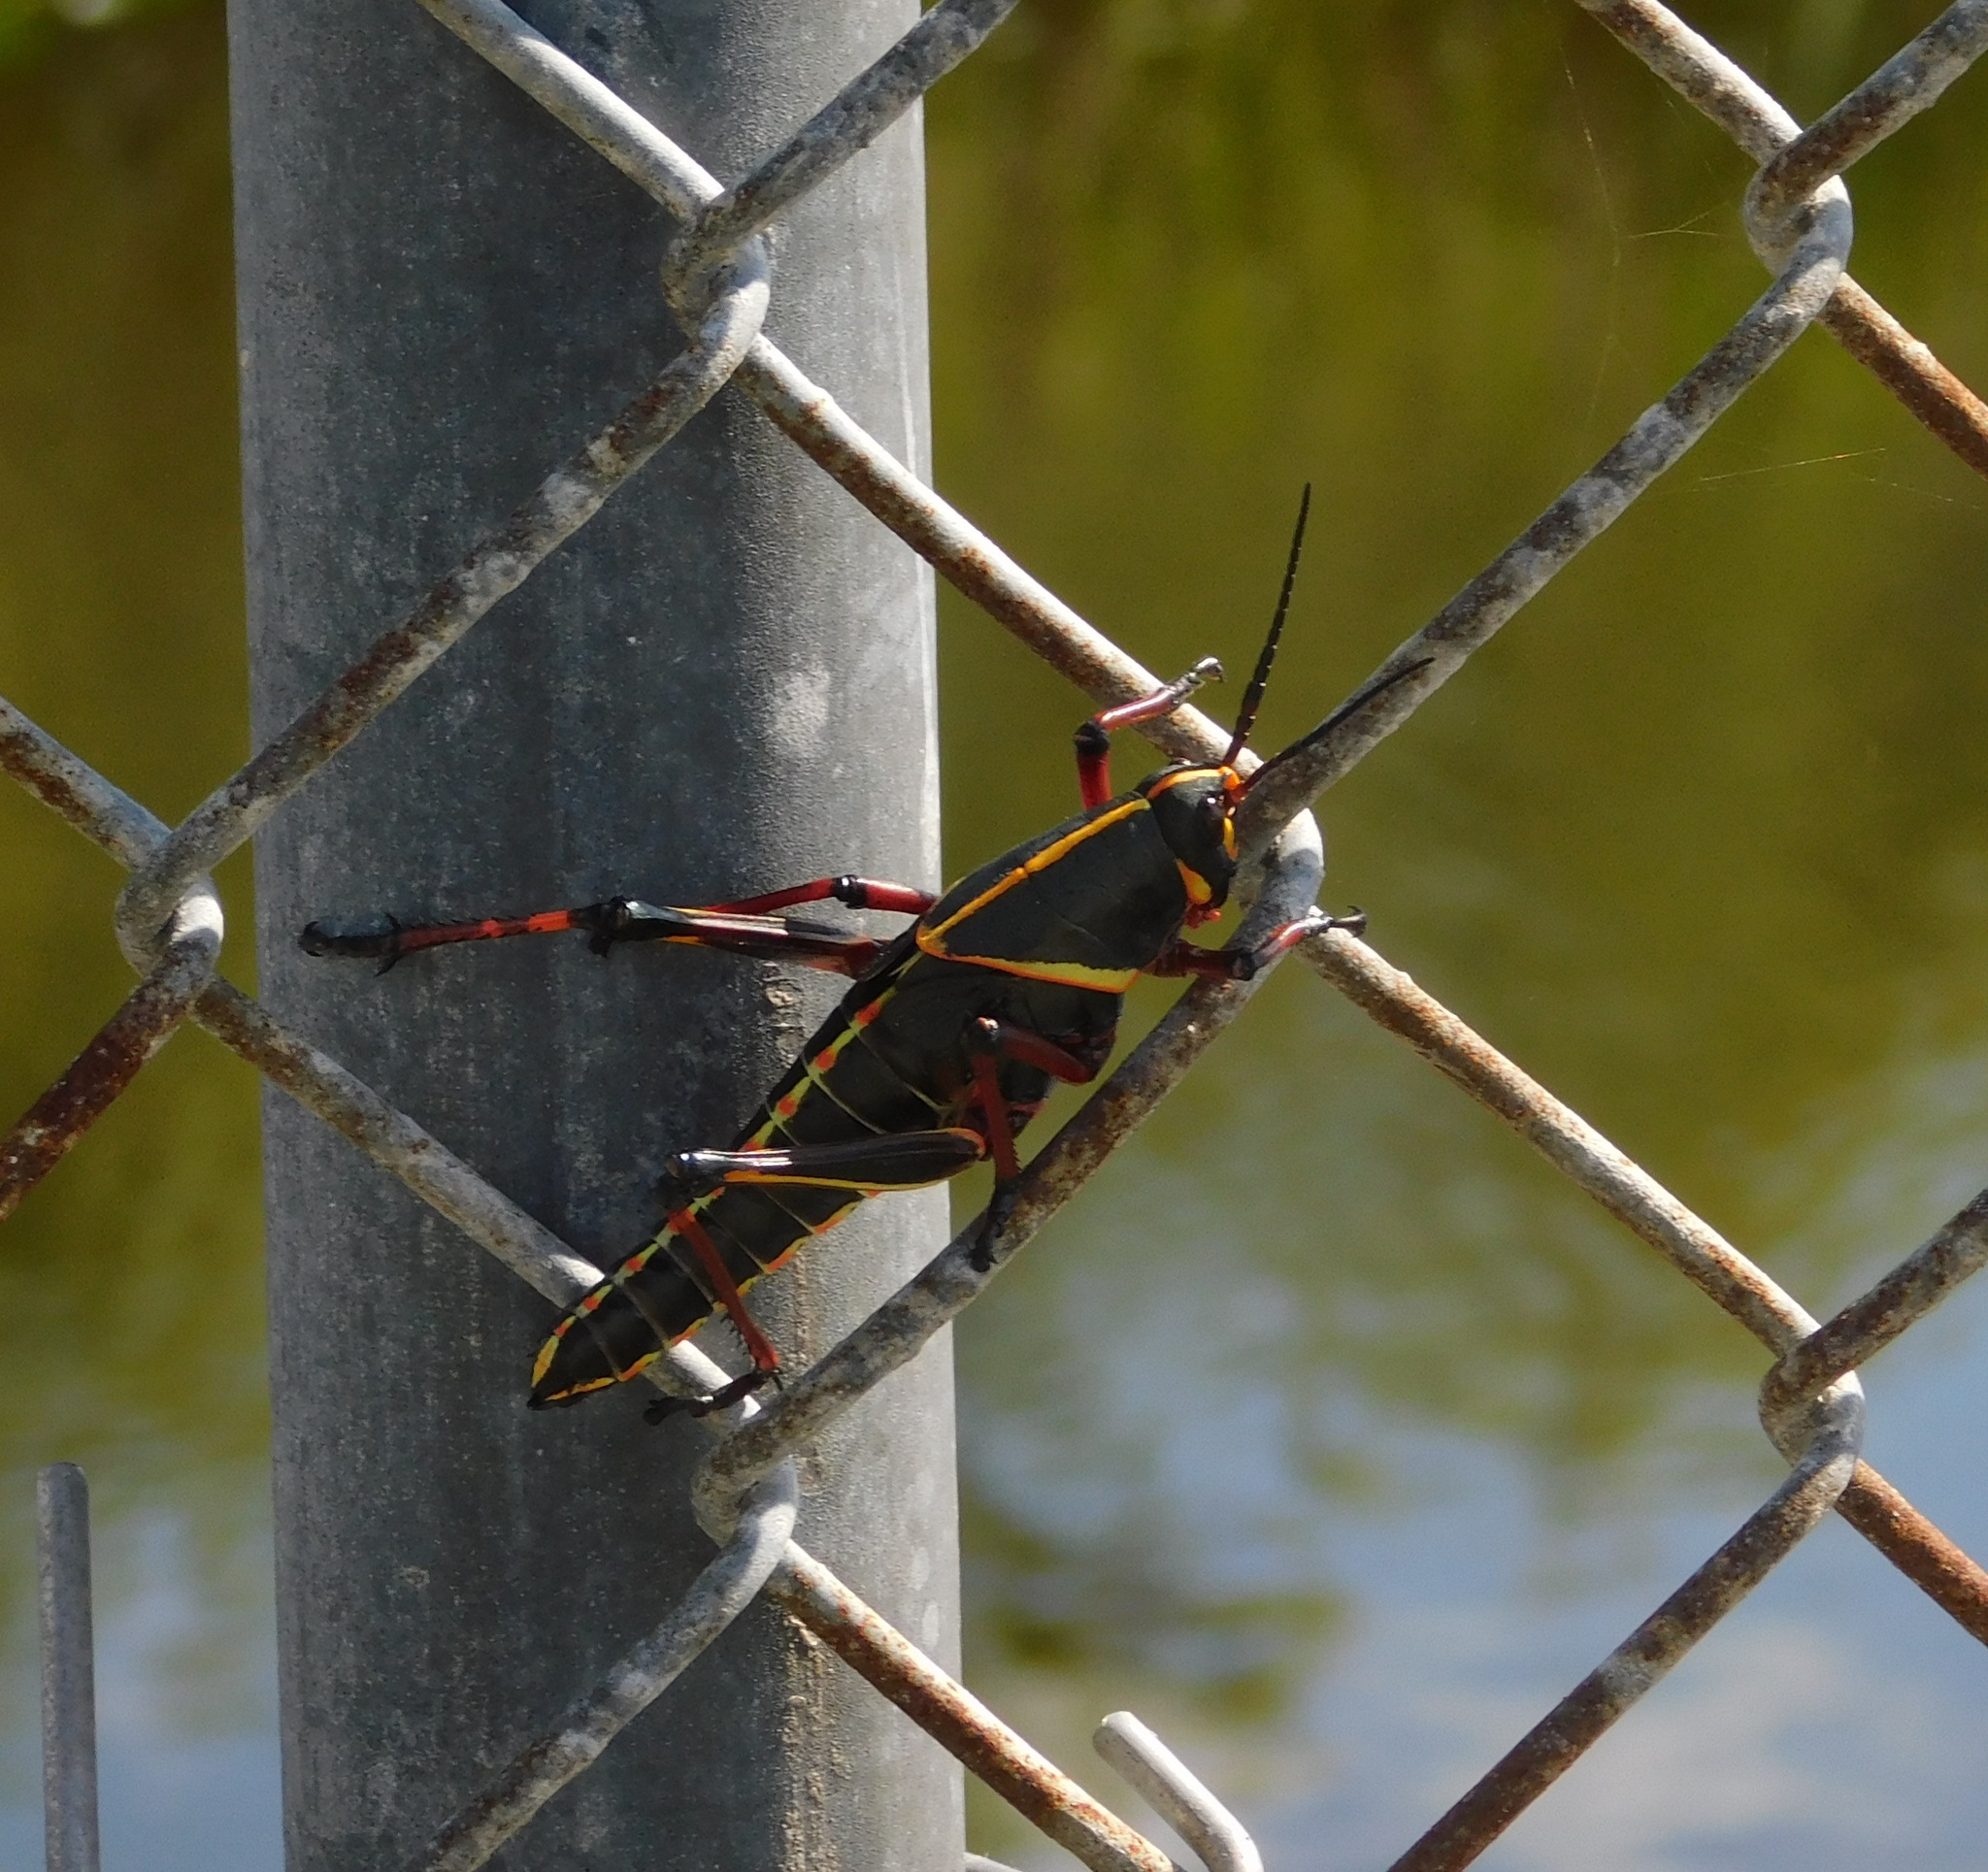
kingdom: Animalia
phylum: Arthropoda
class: Insecta
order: Orthoptera
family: Romaleidae
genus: Romalea
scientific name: Romalea microptera
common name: Eastern lubber grasshopper
